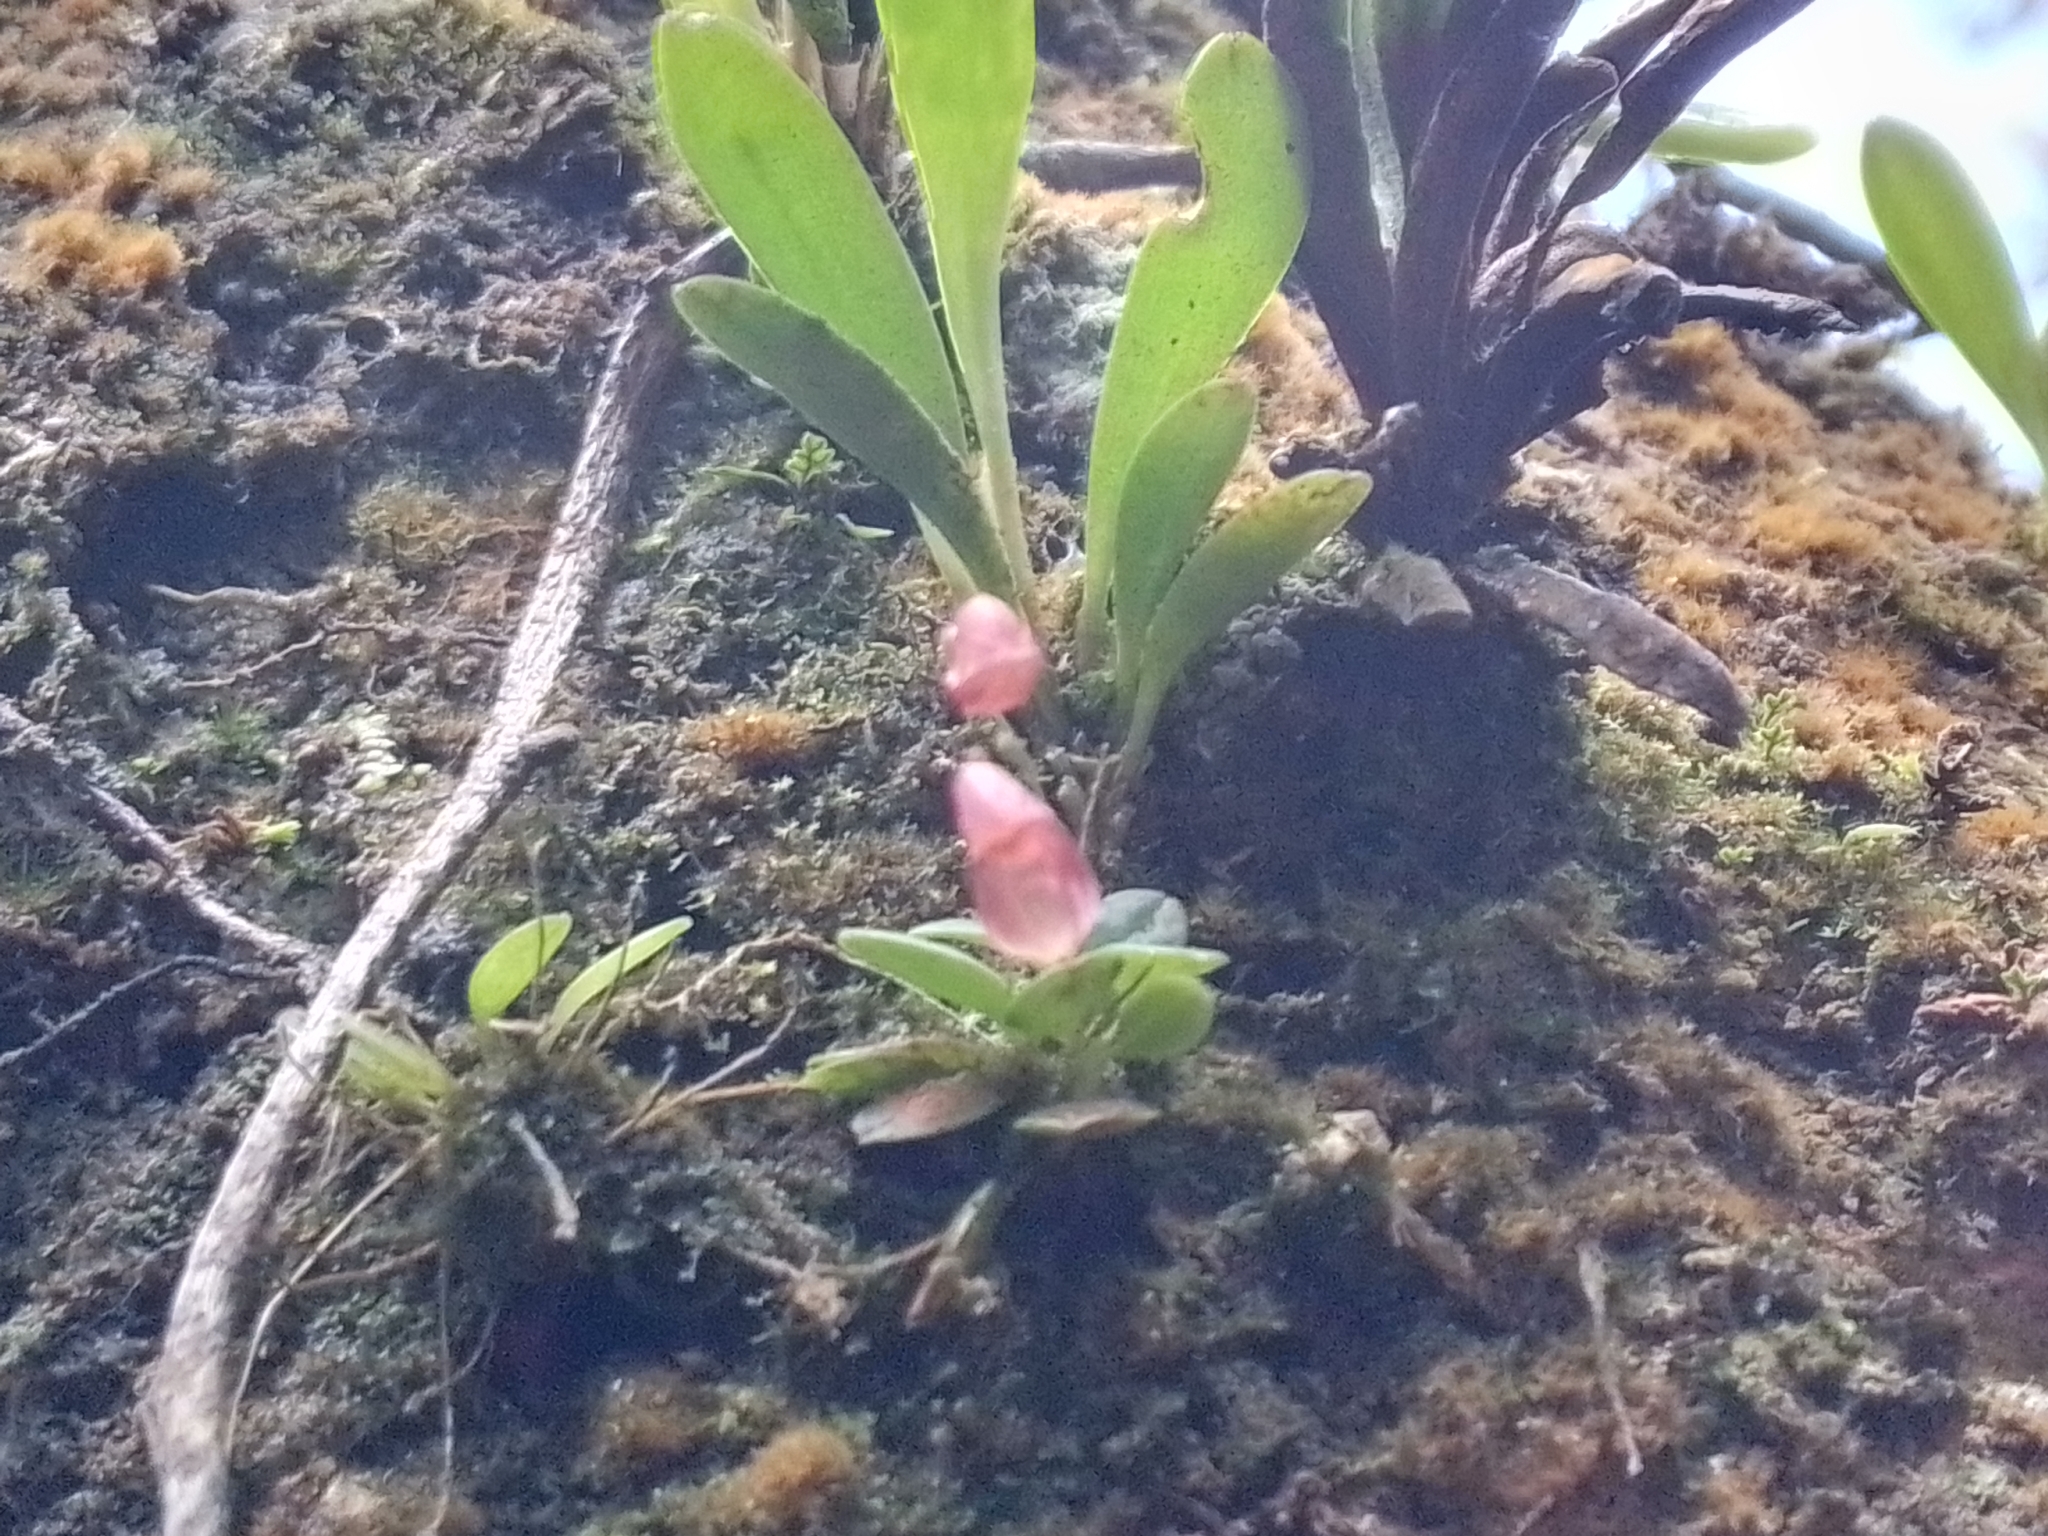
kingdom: Plantae
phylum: Tracheophyta
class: Liliopsida
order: Asparagales
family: Orchidaceae
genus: Specklinia
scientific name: Specklinia colombiana
